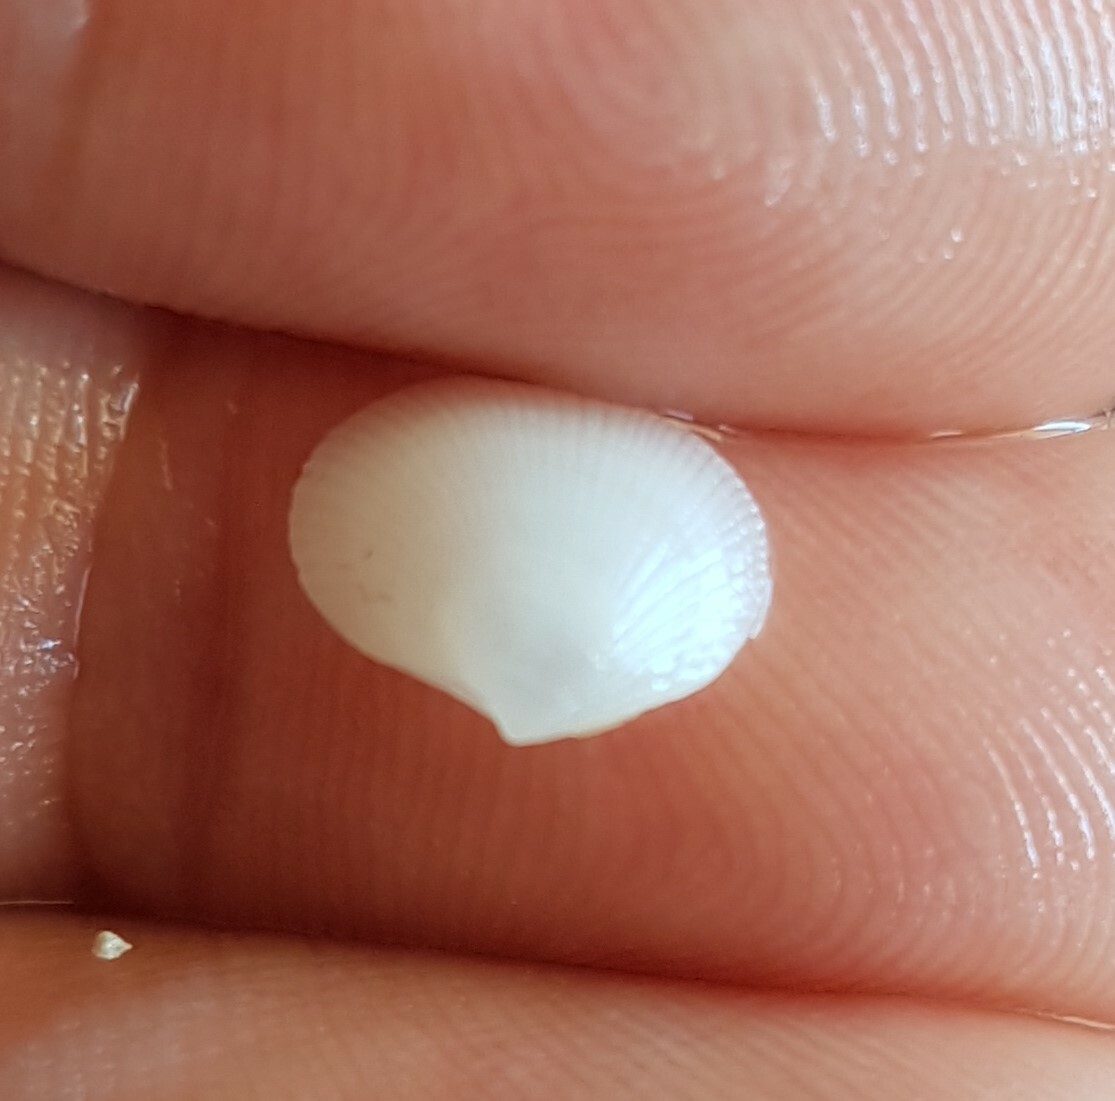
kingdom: Animalia
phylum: Mollusca
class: Bivalvia
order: Lucinida
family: Lucinidae
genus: Ctena
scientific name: Ctena decussata
